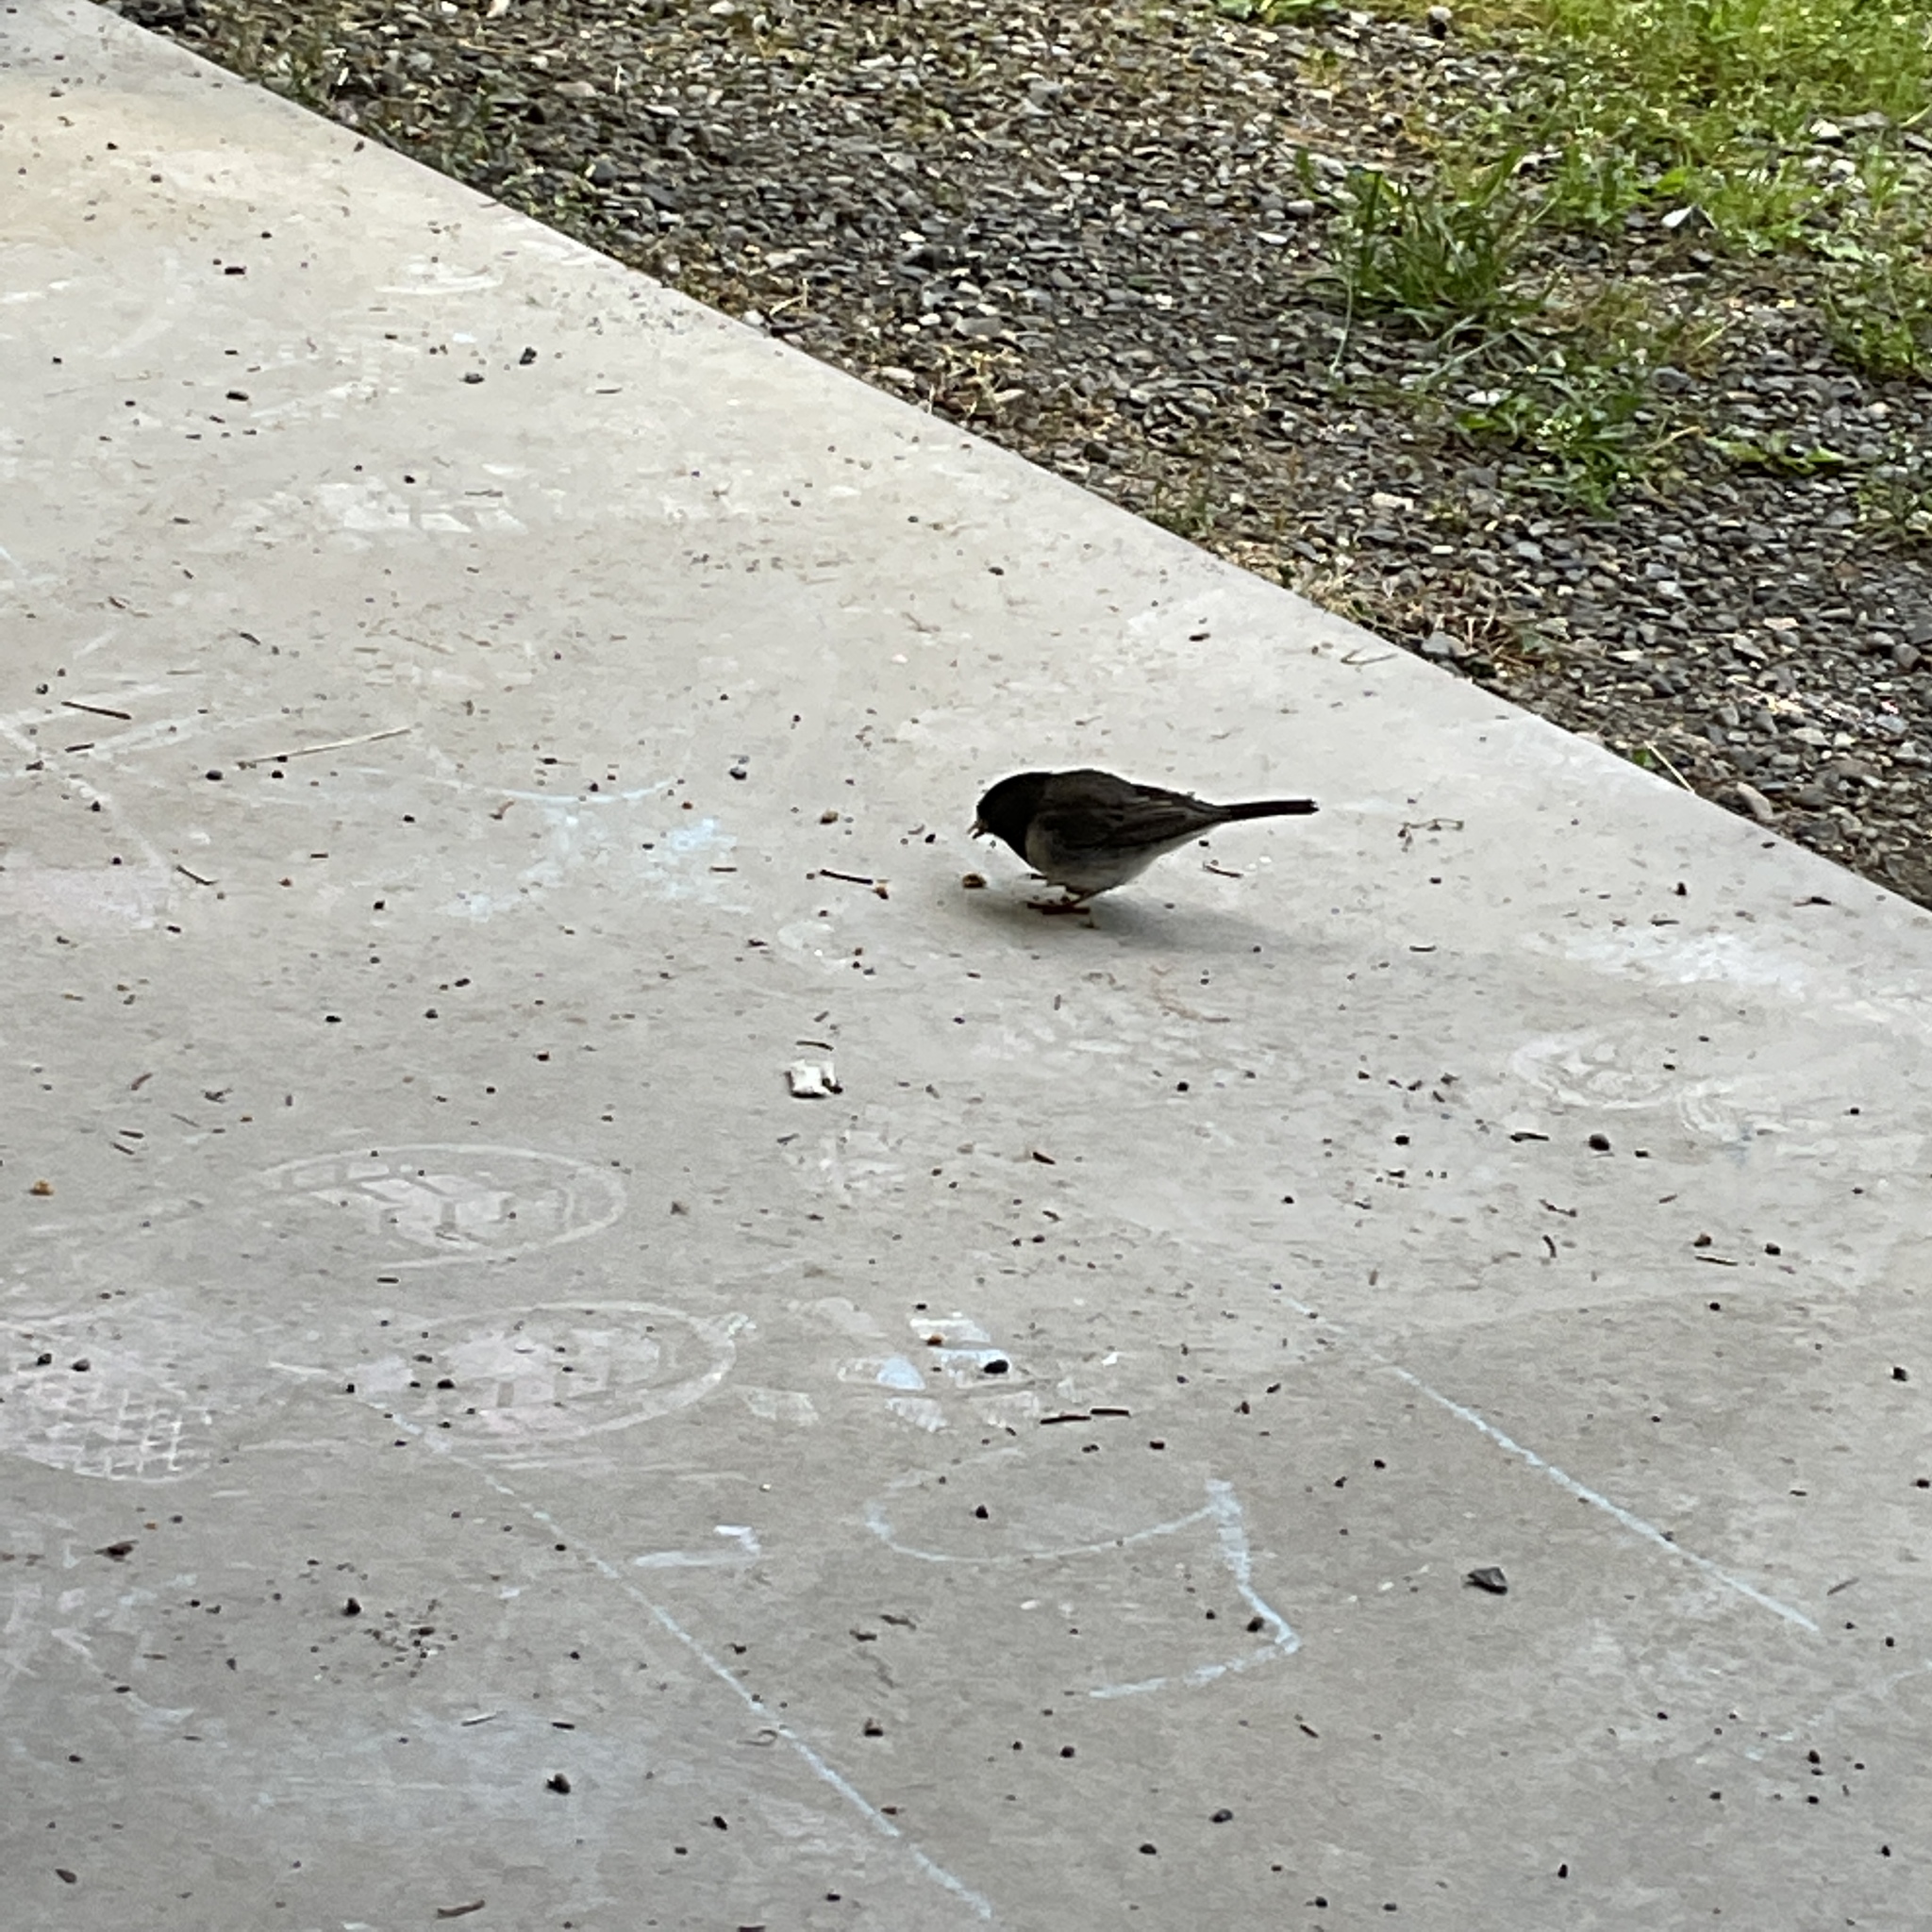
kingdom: Animalia
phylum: Chordata
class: Aves
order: Passeriformes
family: Passerellidae
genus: Junco
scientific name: Junco hyemalis
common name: Dark-eyed junco
